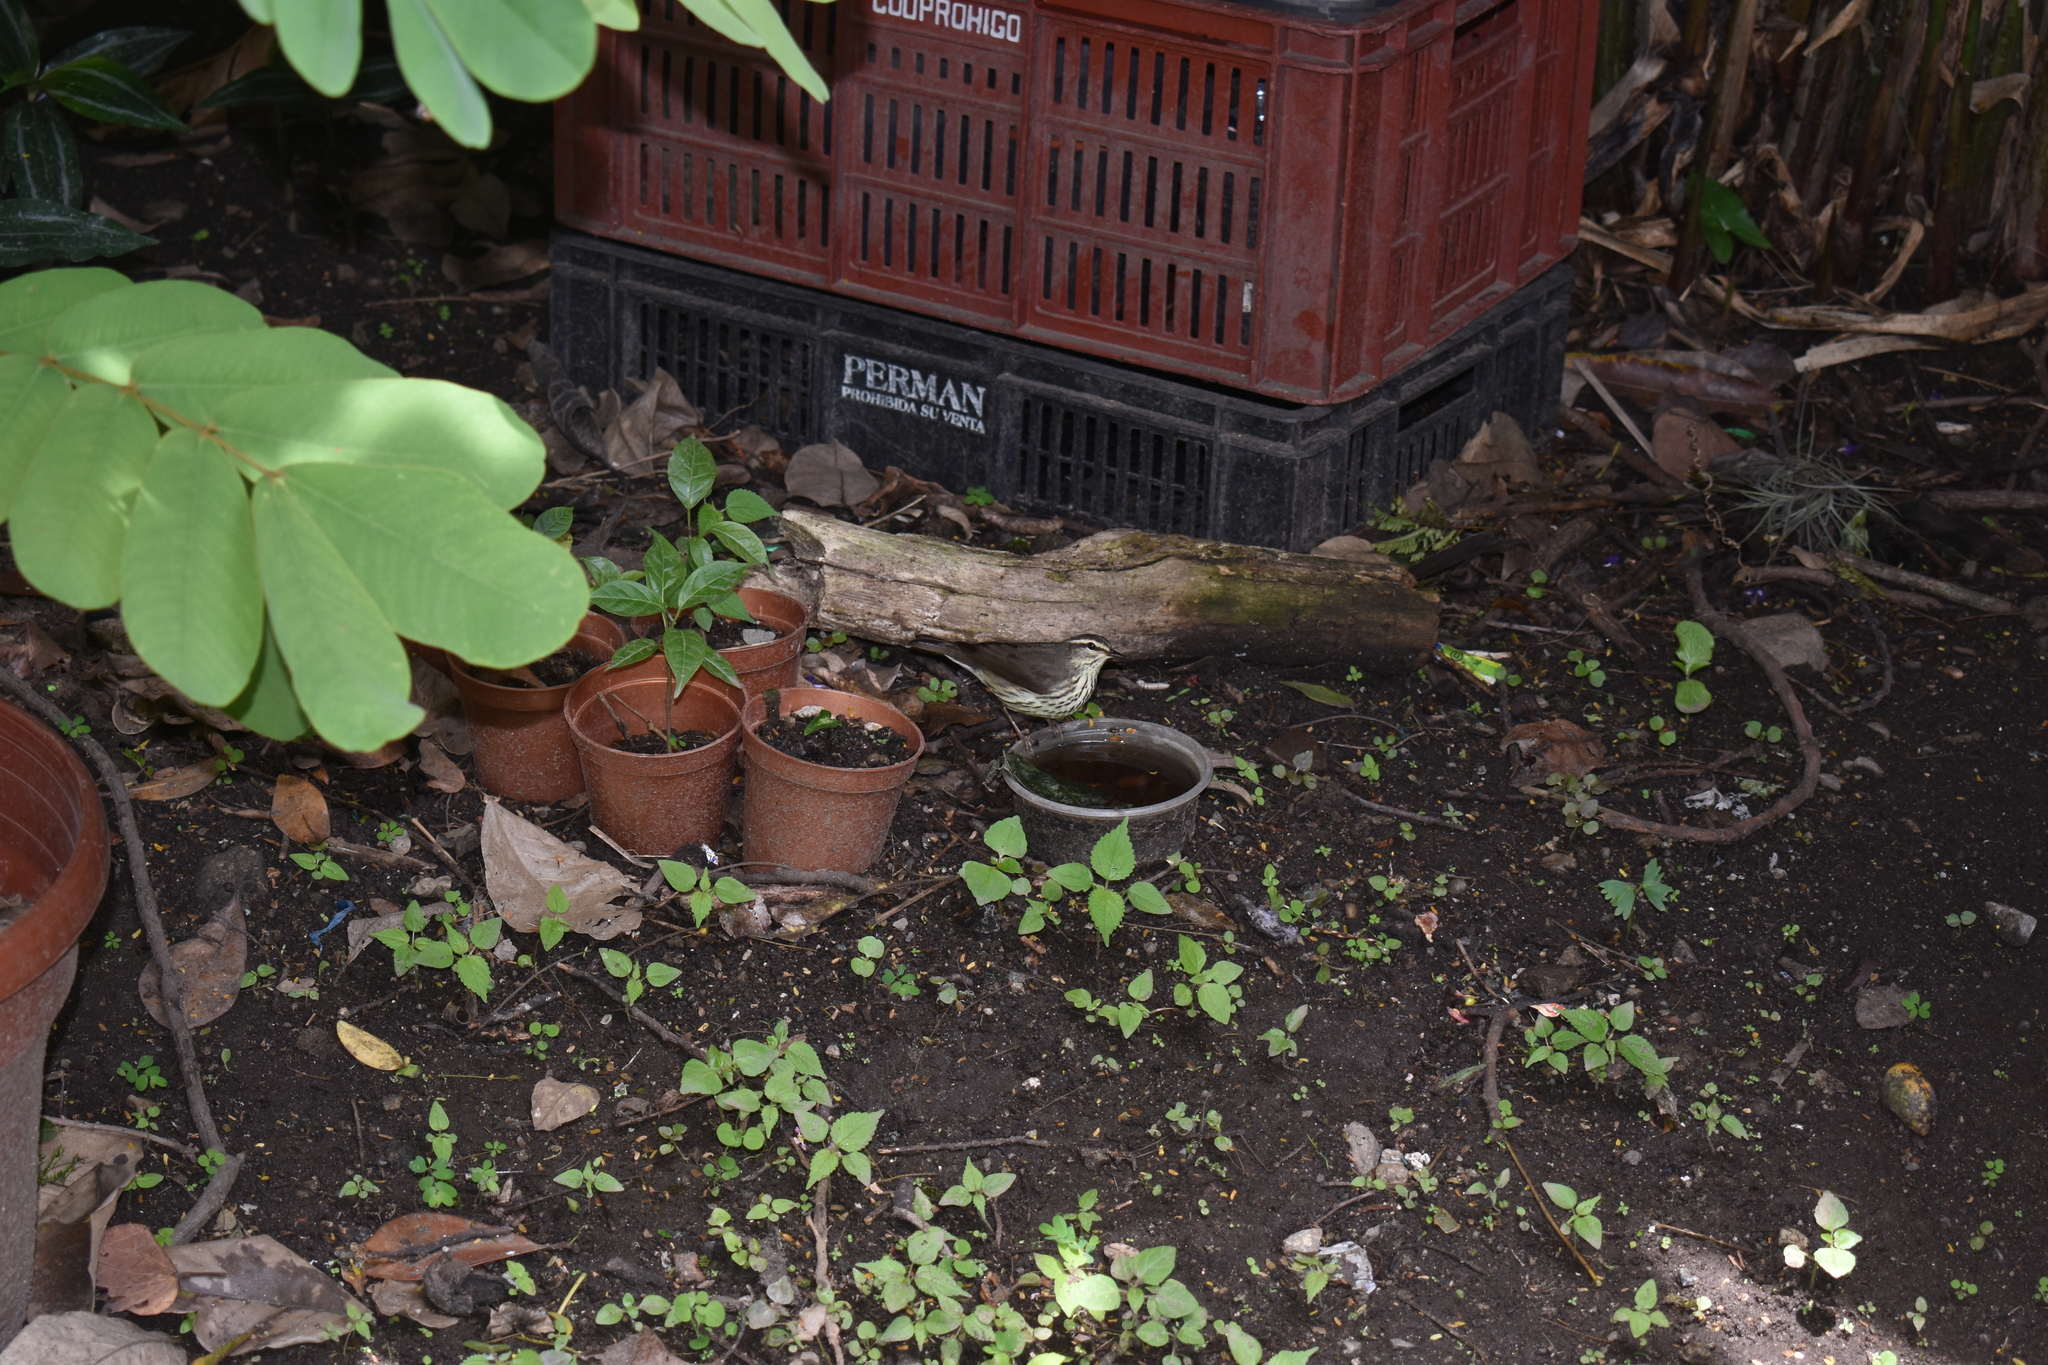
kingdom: Animalia
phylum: Chordata
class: Aves
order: Passeriformes
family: Parulidae
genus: Parkesia
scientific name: Parkesia noveboracensis
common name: Northern waterthrush
